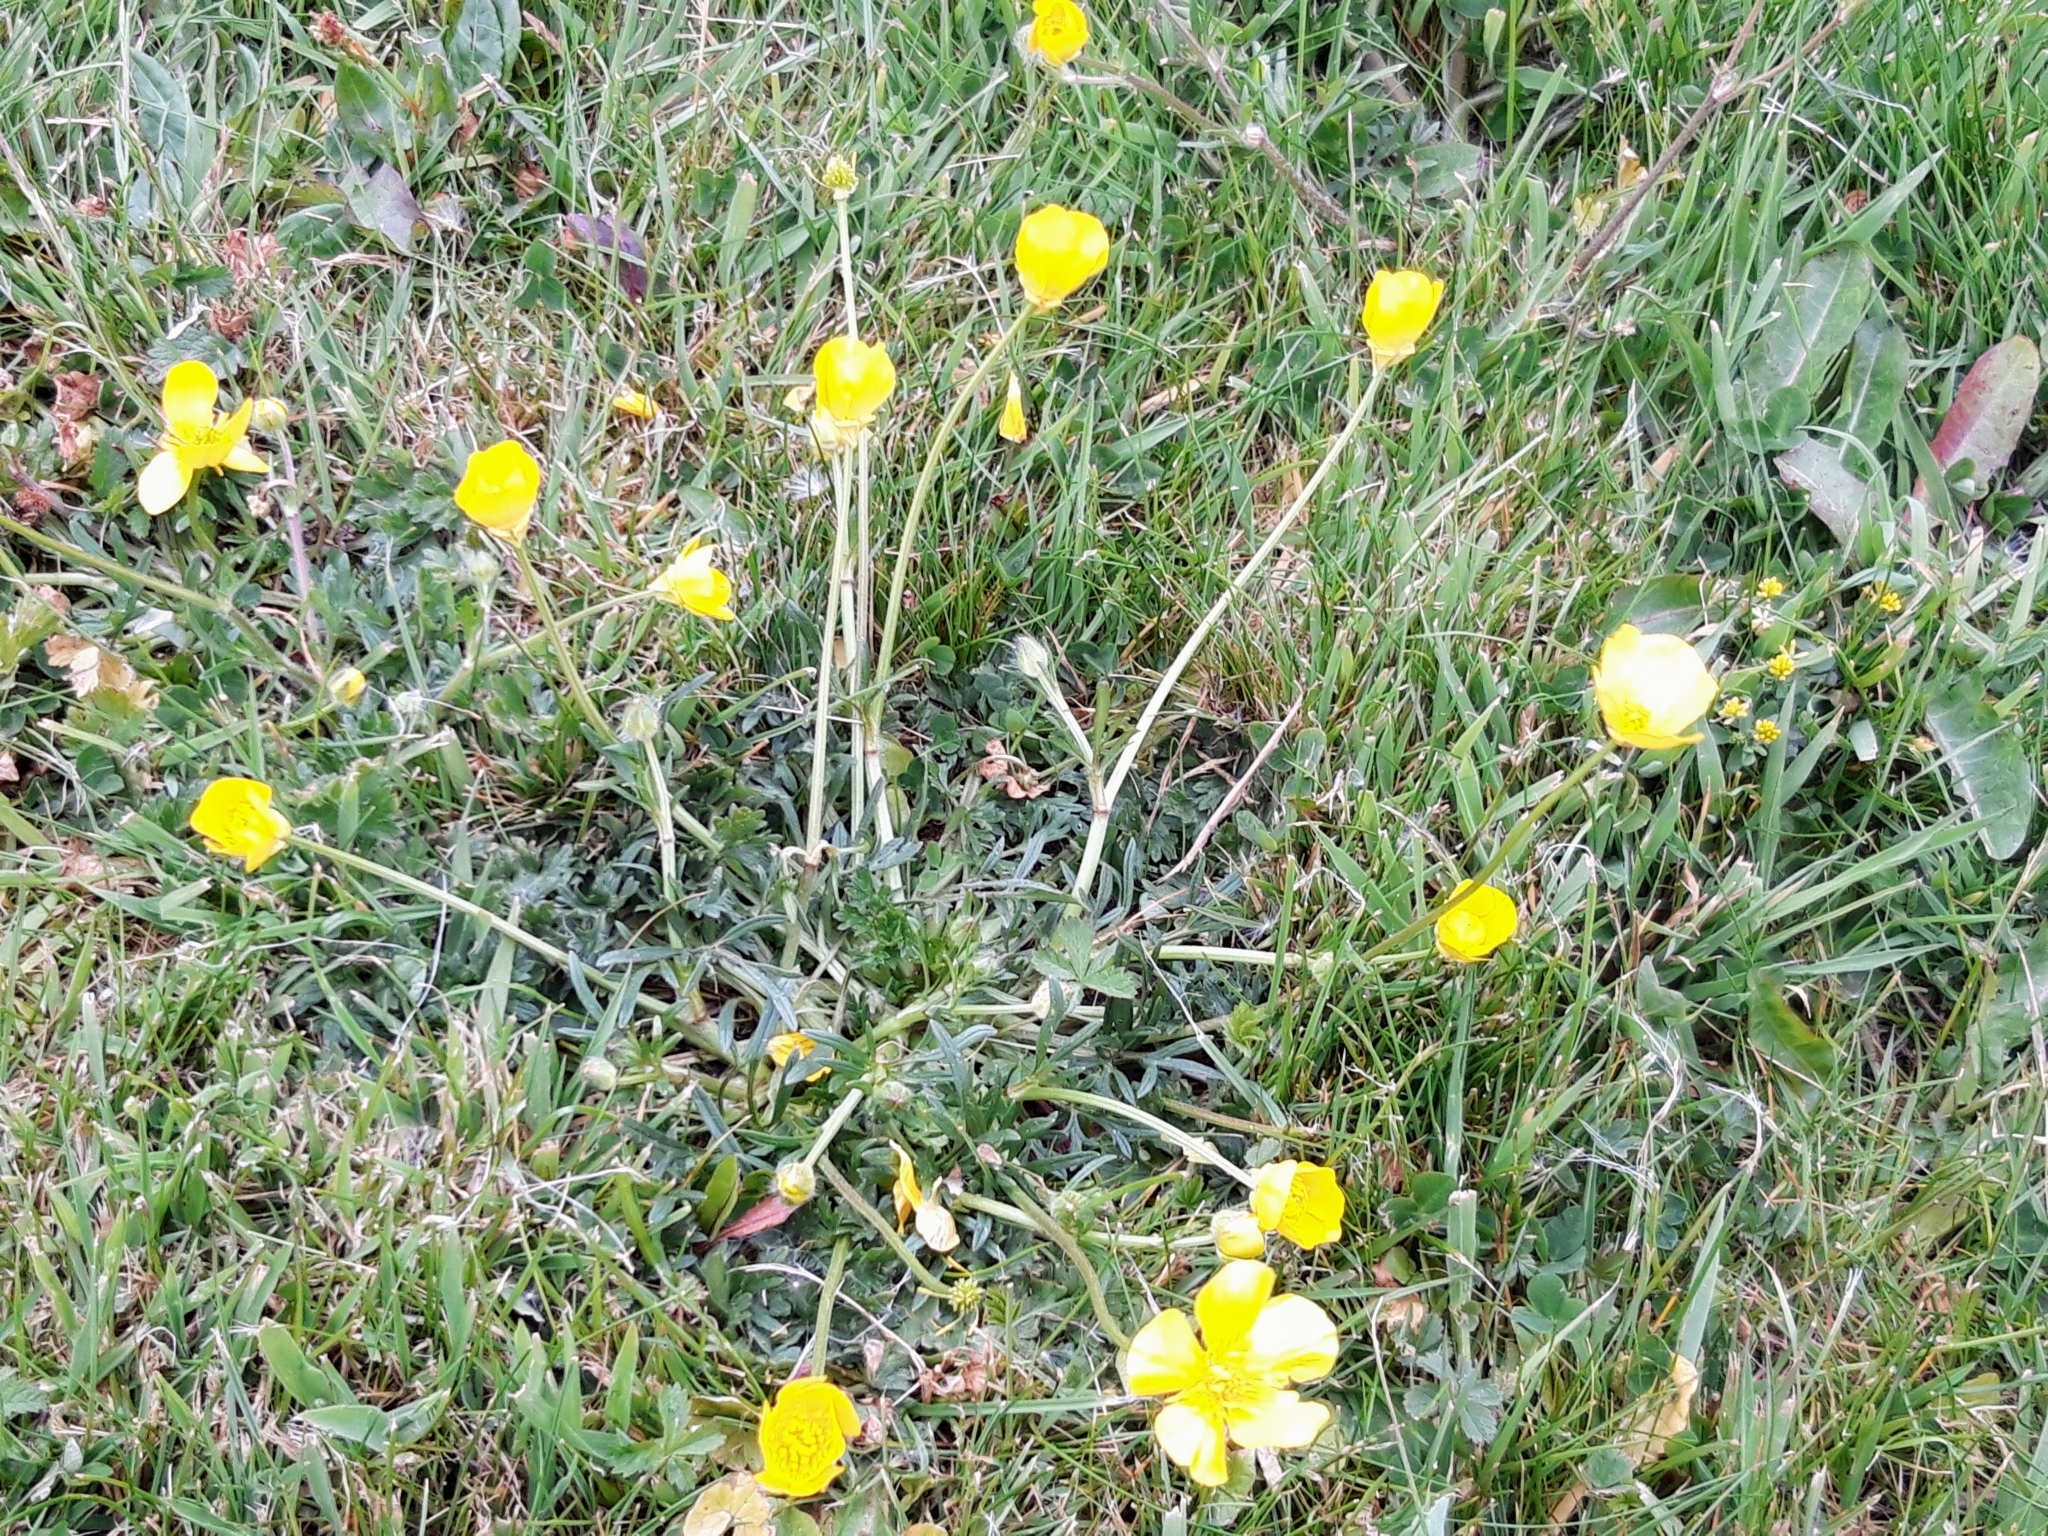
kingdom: Plantae
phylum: Tracheophyta
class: Magnoliopsida
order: Ranunculales
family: Ranunculaceae
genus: Ranunculus
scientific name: Ranunculus bulbosus
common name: Bulbous buttercup
